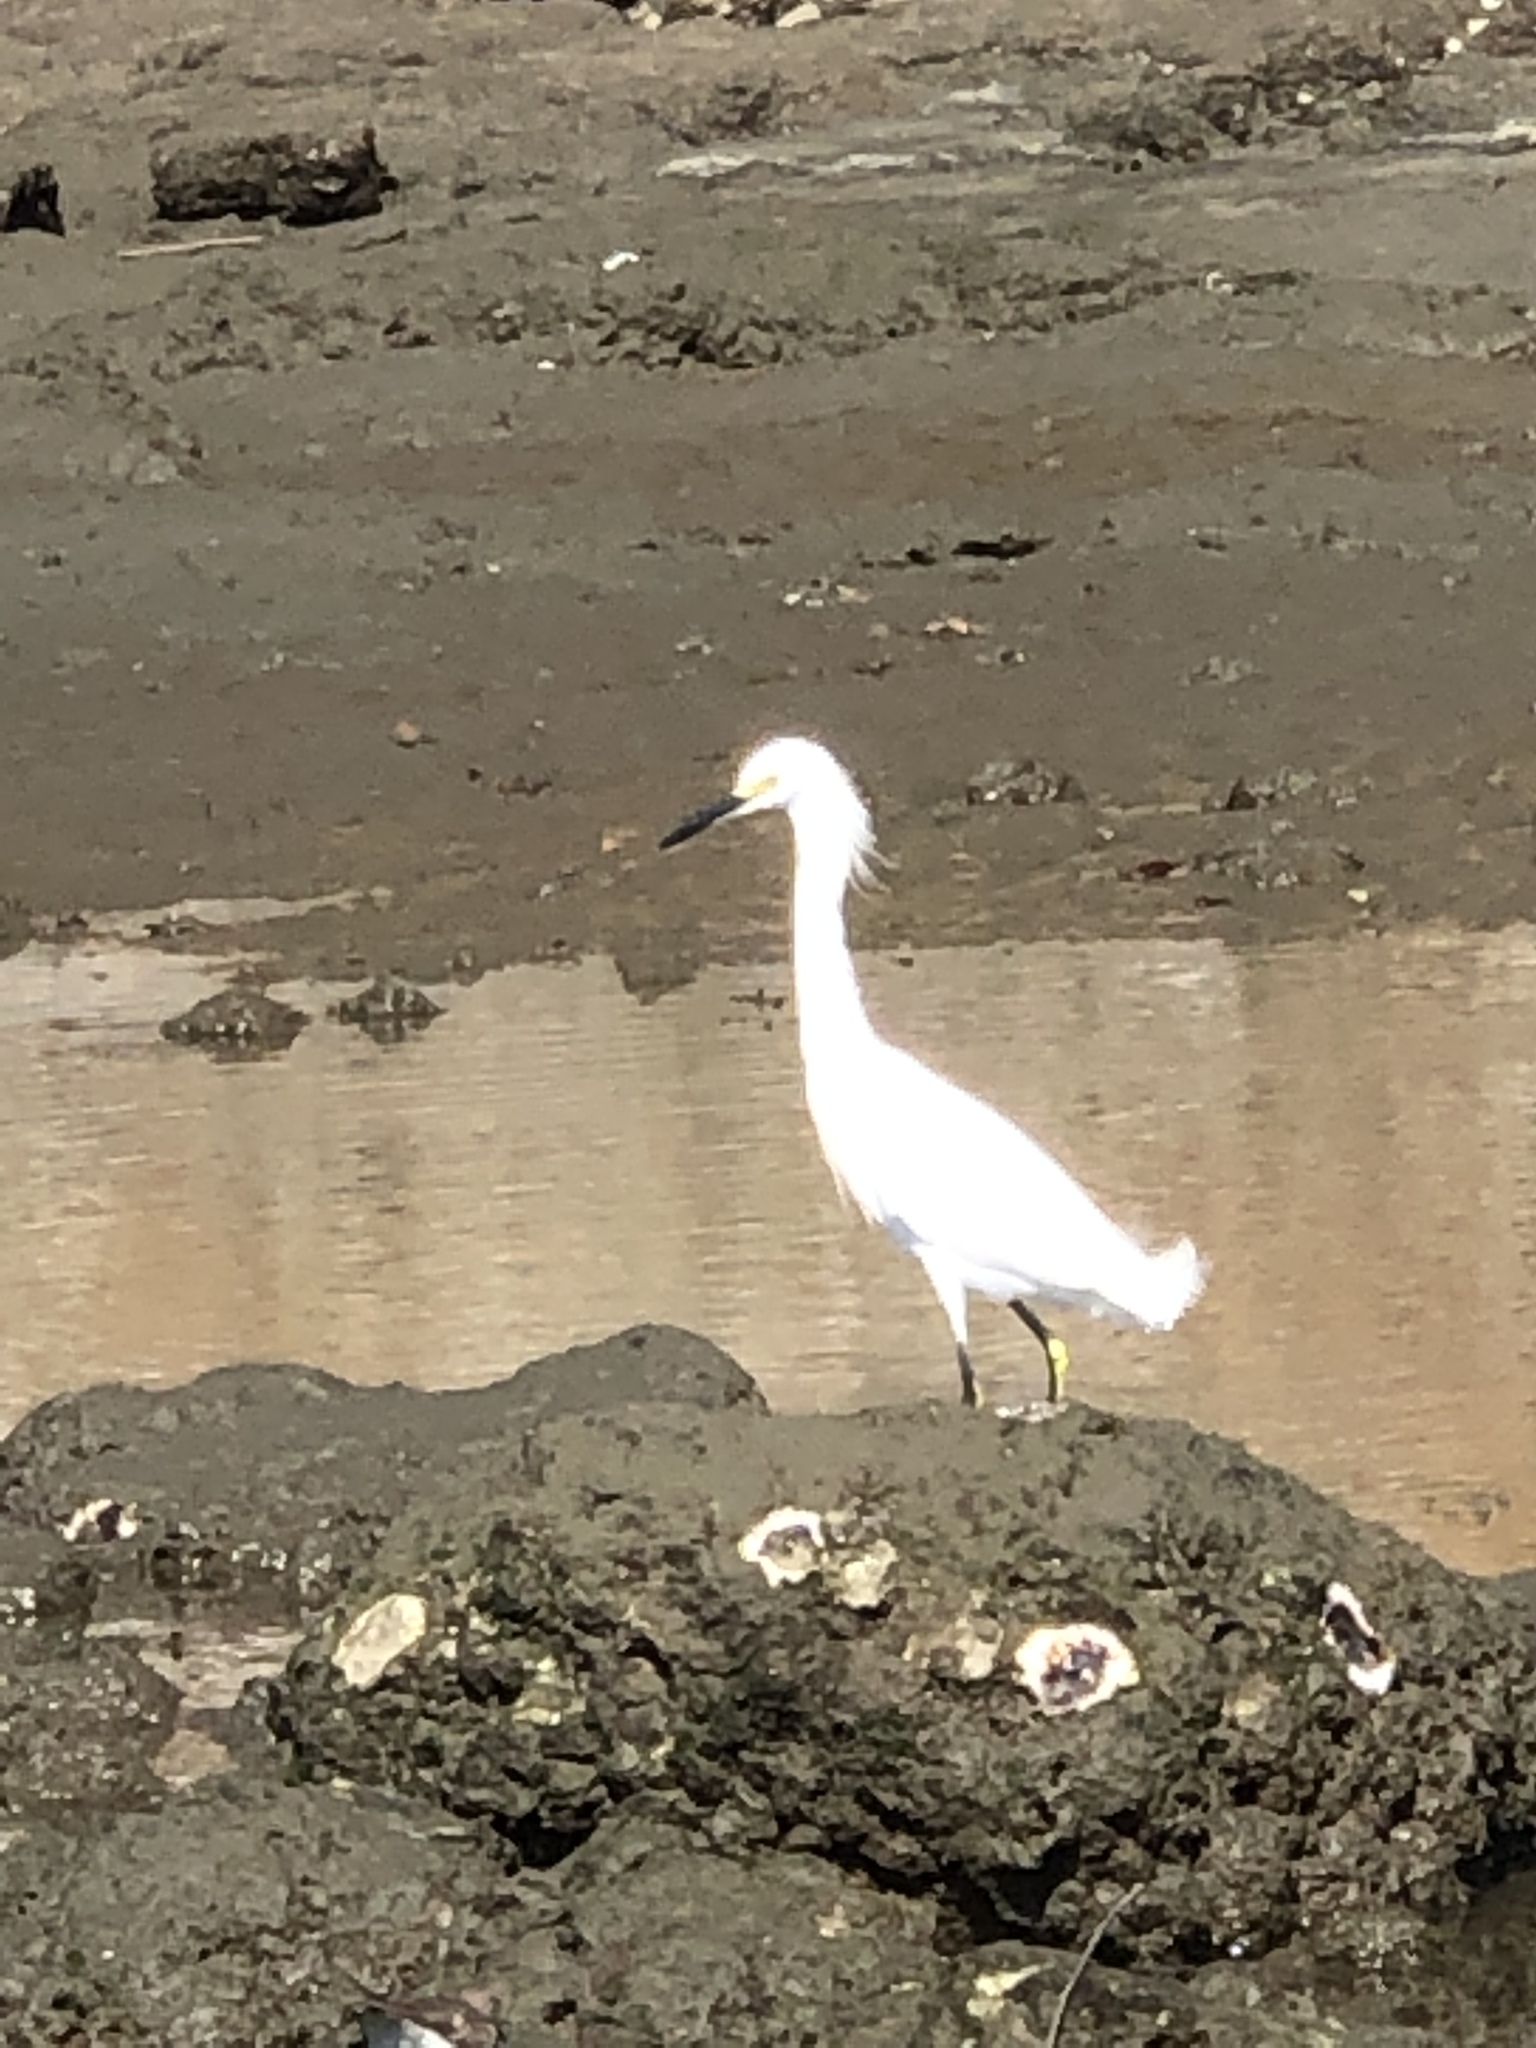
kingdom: Animalia
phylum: Chordata
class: Aves
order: Pelecaniformes
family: Ardeidae
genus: Egretta
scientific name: Egretta thula
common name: Snowy egret
